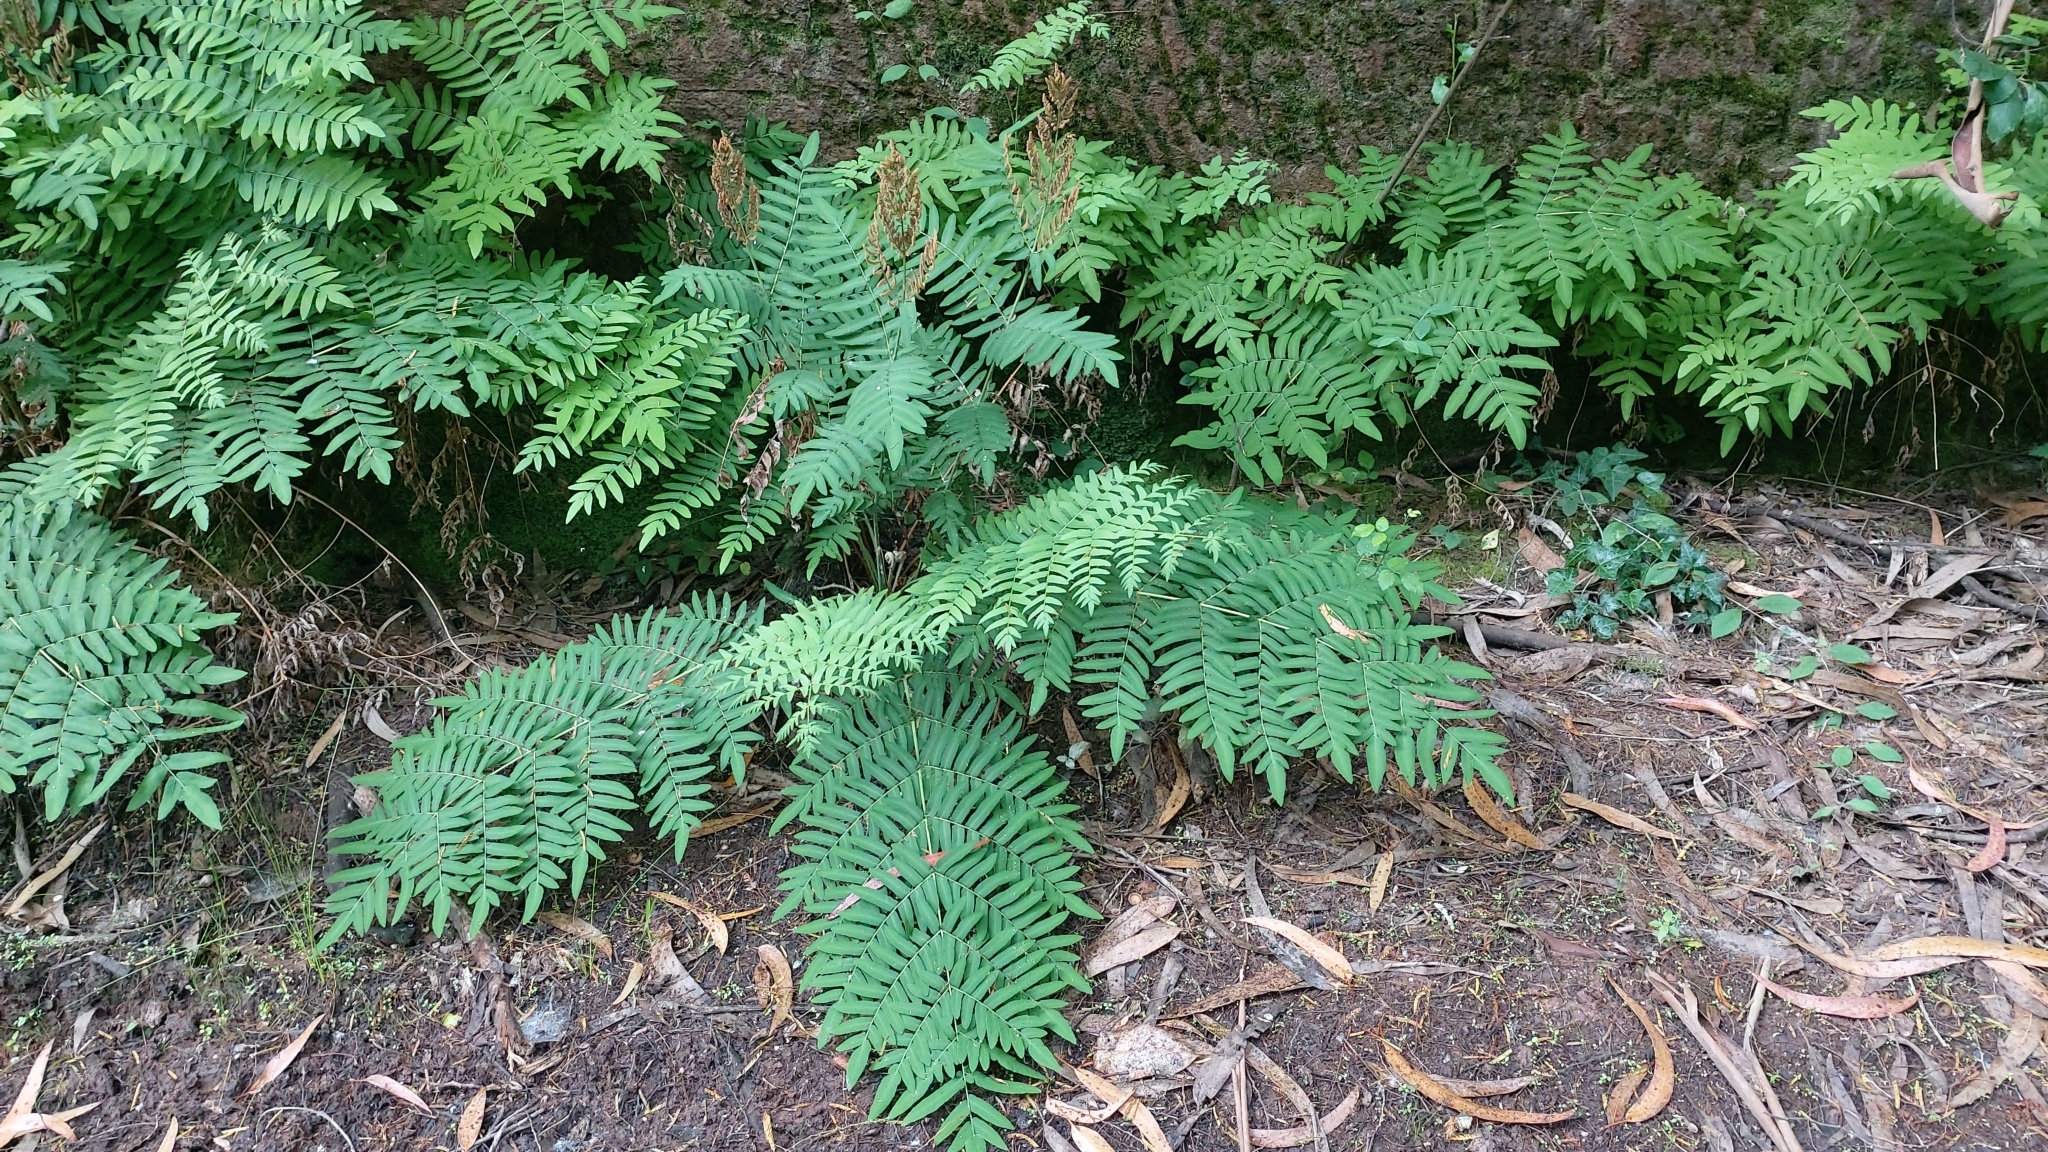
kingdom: Plantae
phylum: Tracheophyta
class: Polypodiopsida
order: Osmundales
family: Osmundaceae
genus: Osmunda
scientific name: Osmunda regalis
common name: Royal fern
